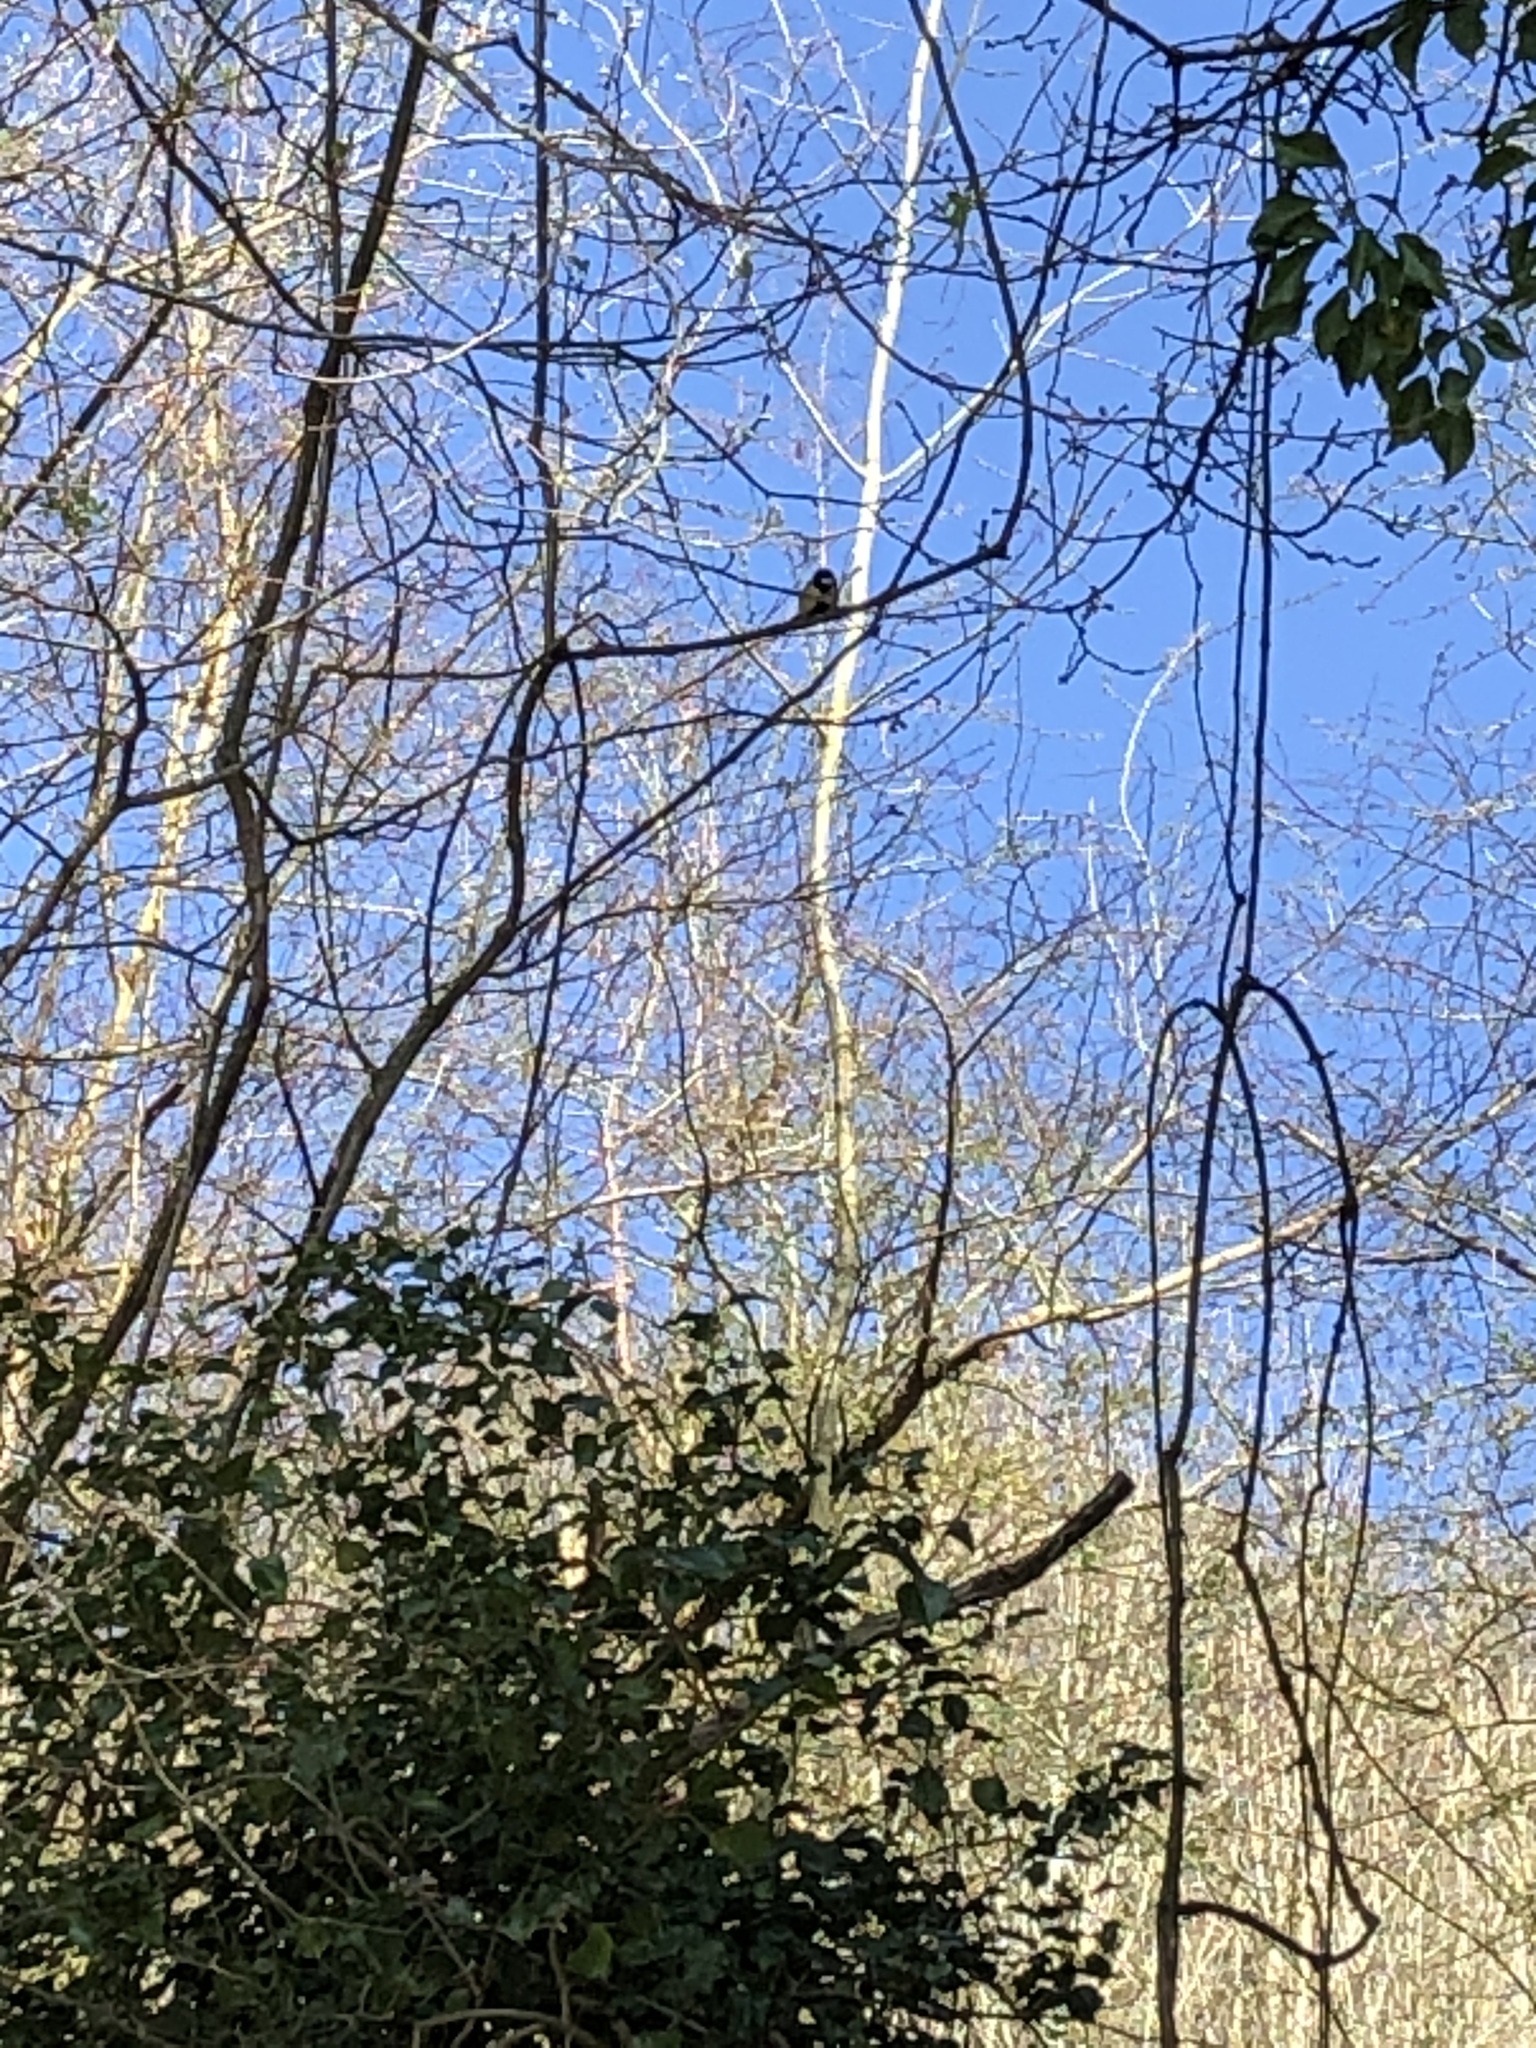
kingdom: Animalia
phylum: Chordata
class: Aves
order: Passeriformes
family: Paridae
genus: Parus
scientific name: Parus major
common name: Great tit
